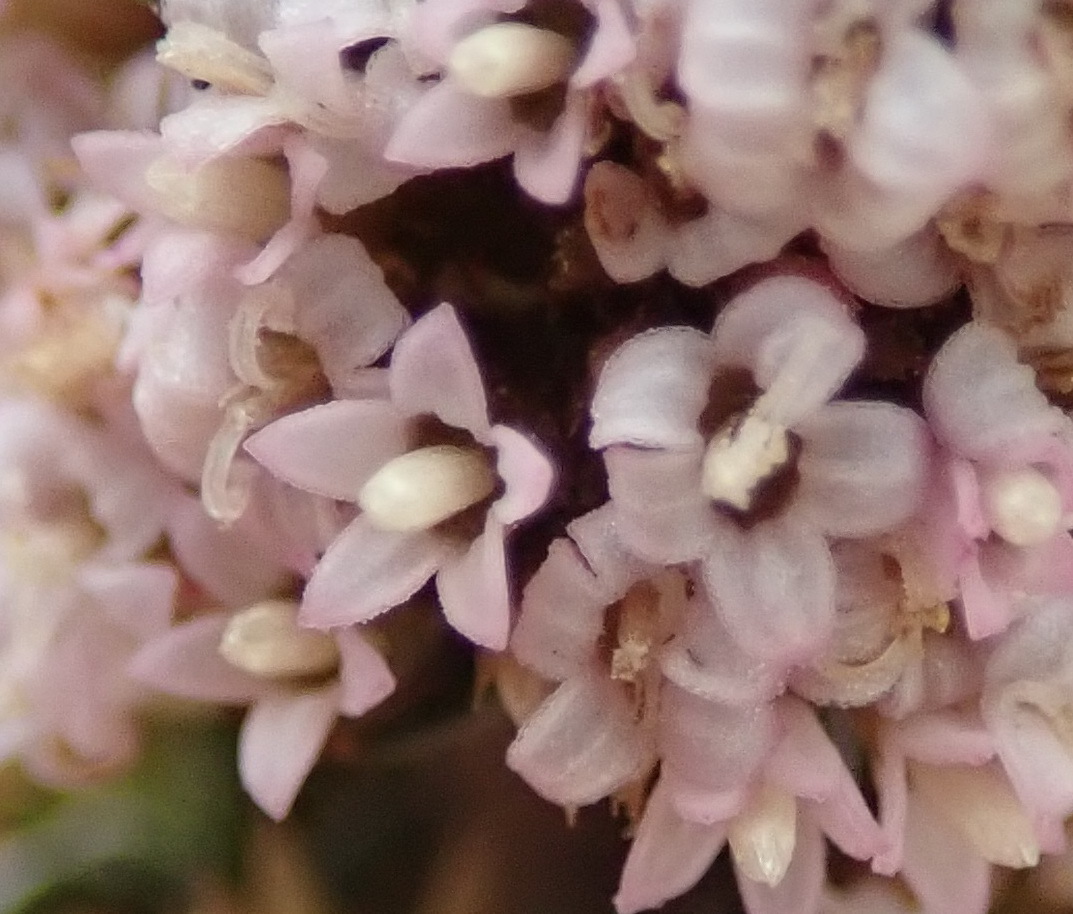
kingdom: Plantae
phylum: Tracheophyta
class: Magnoliopsida
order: Asterales
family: Asteraceae
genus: Stoebe
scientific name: Stoebe capitata
